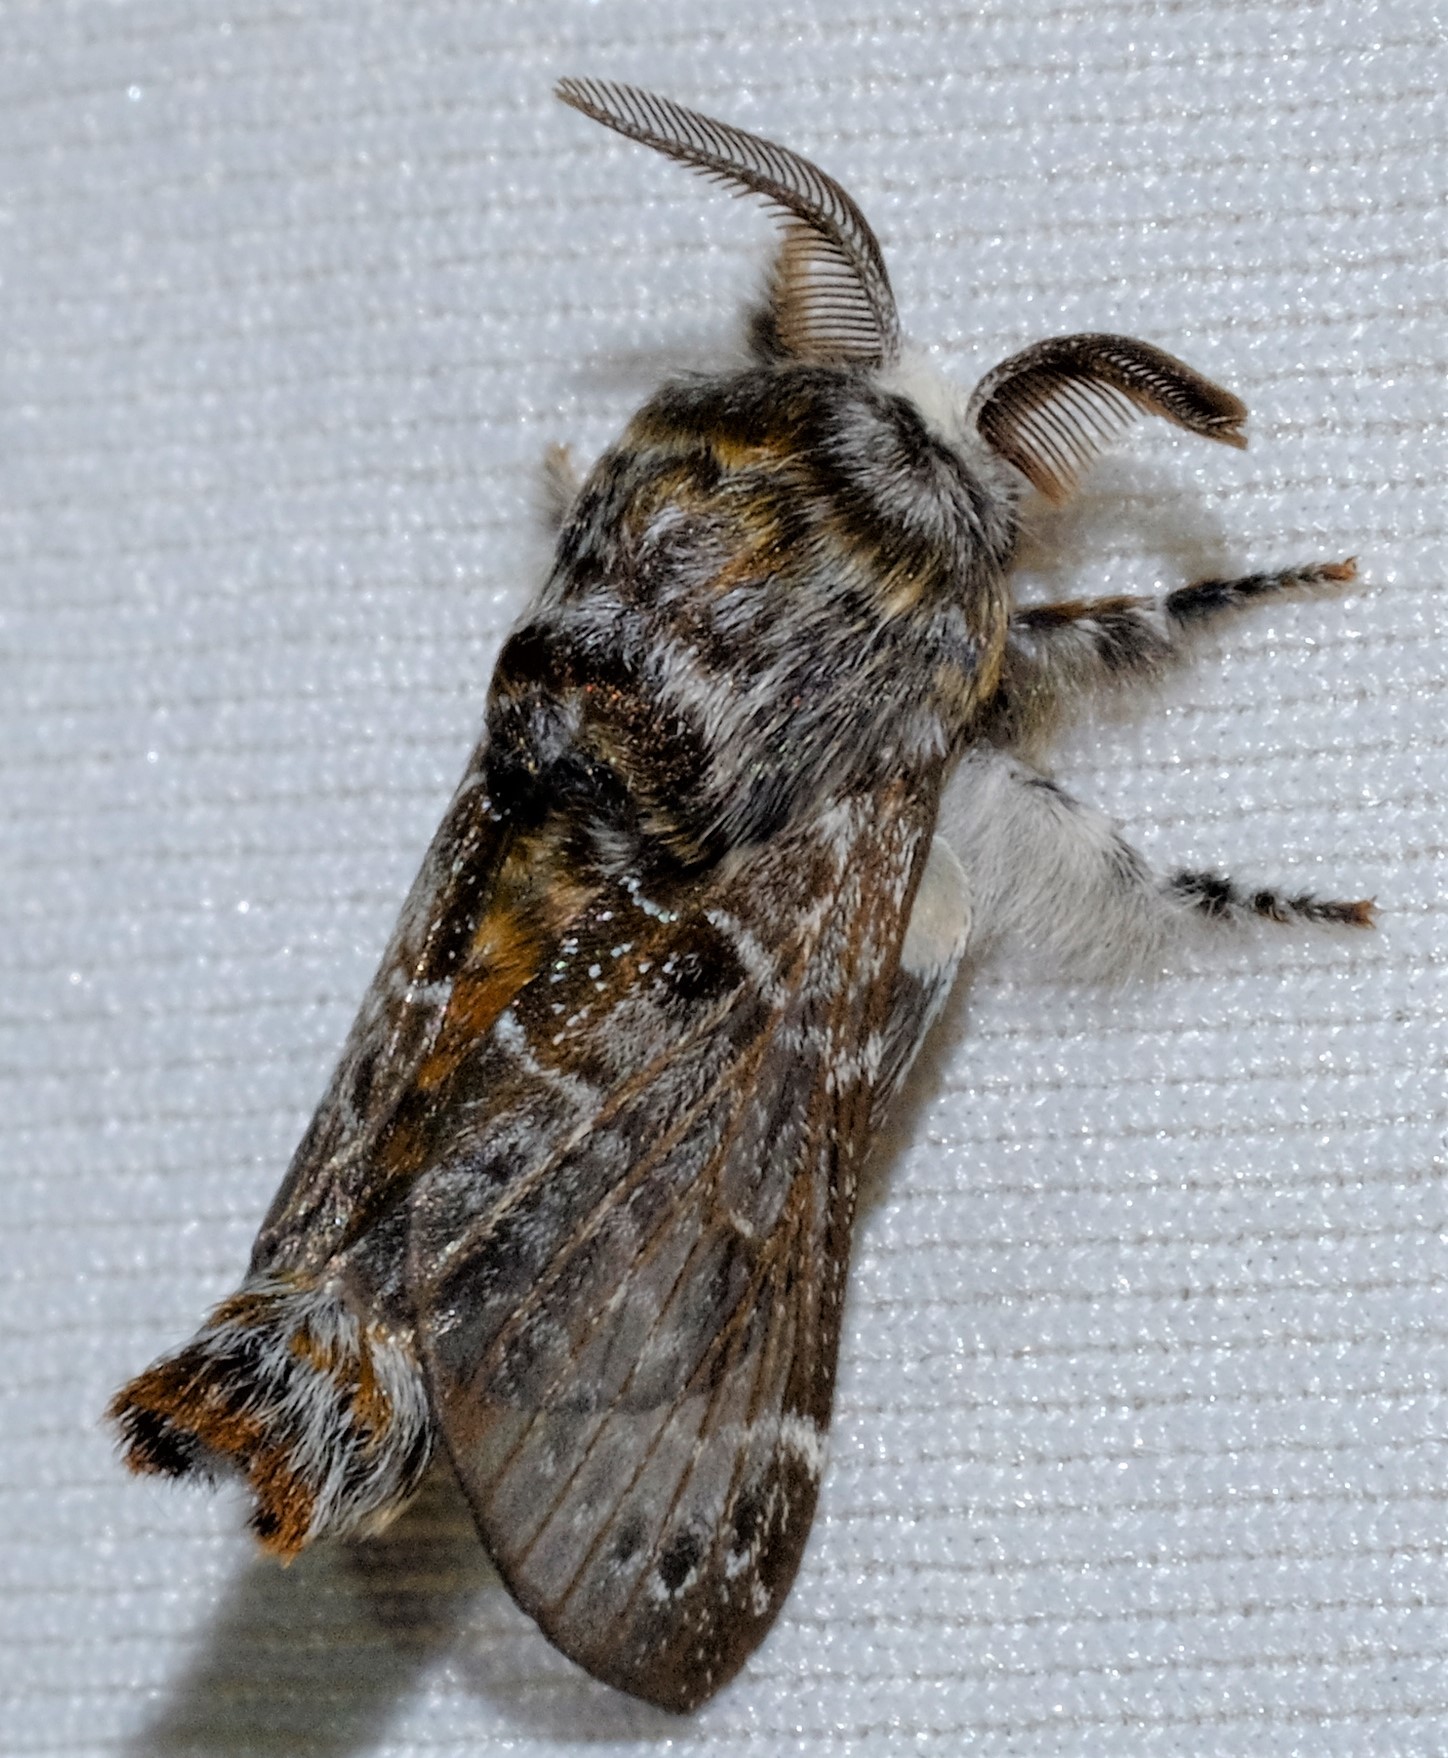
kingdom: Animalia
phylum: Arthropoda
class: Insecta
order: Lepidoptera
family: Lasiocampidae
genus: Genduara
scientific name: Genduara subnotata
